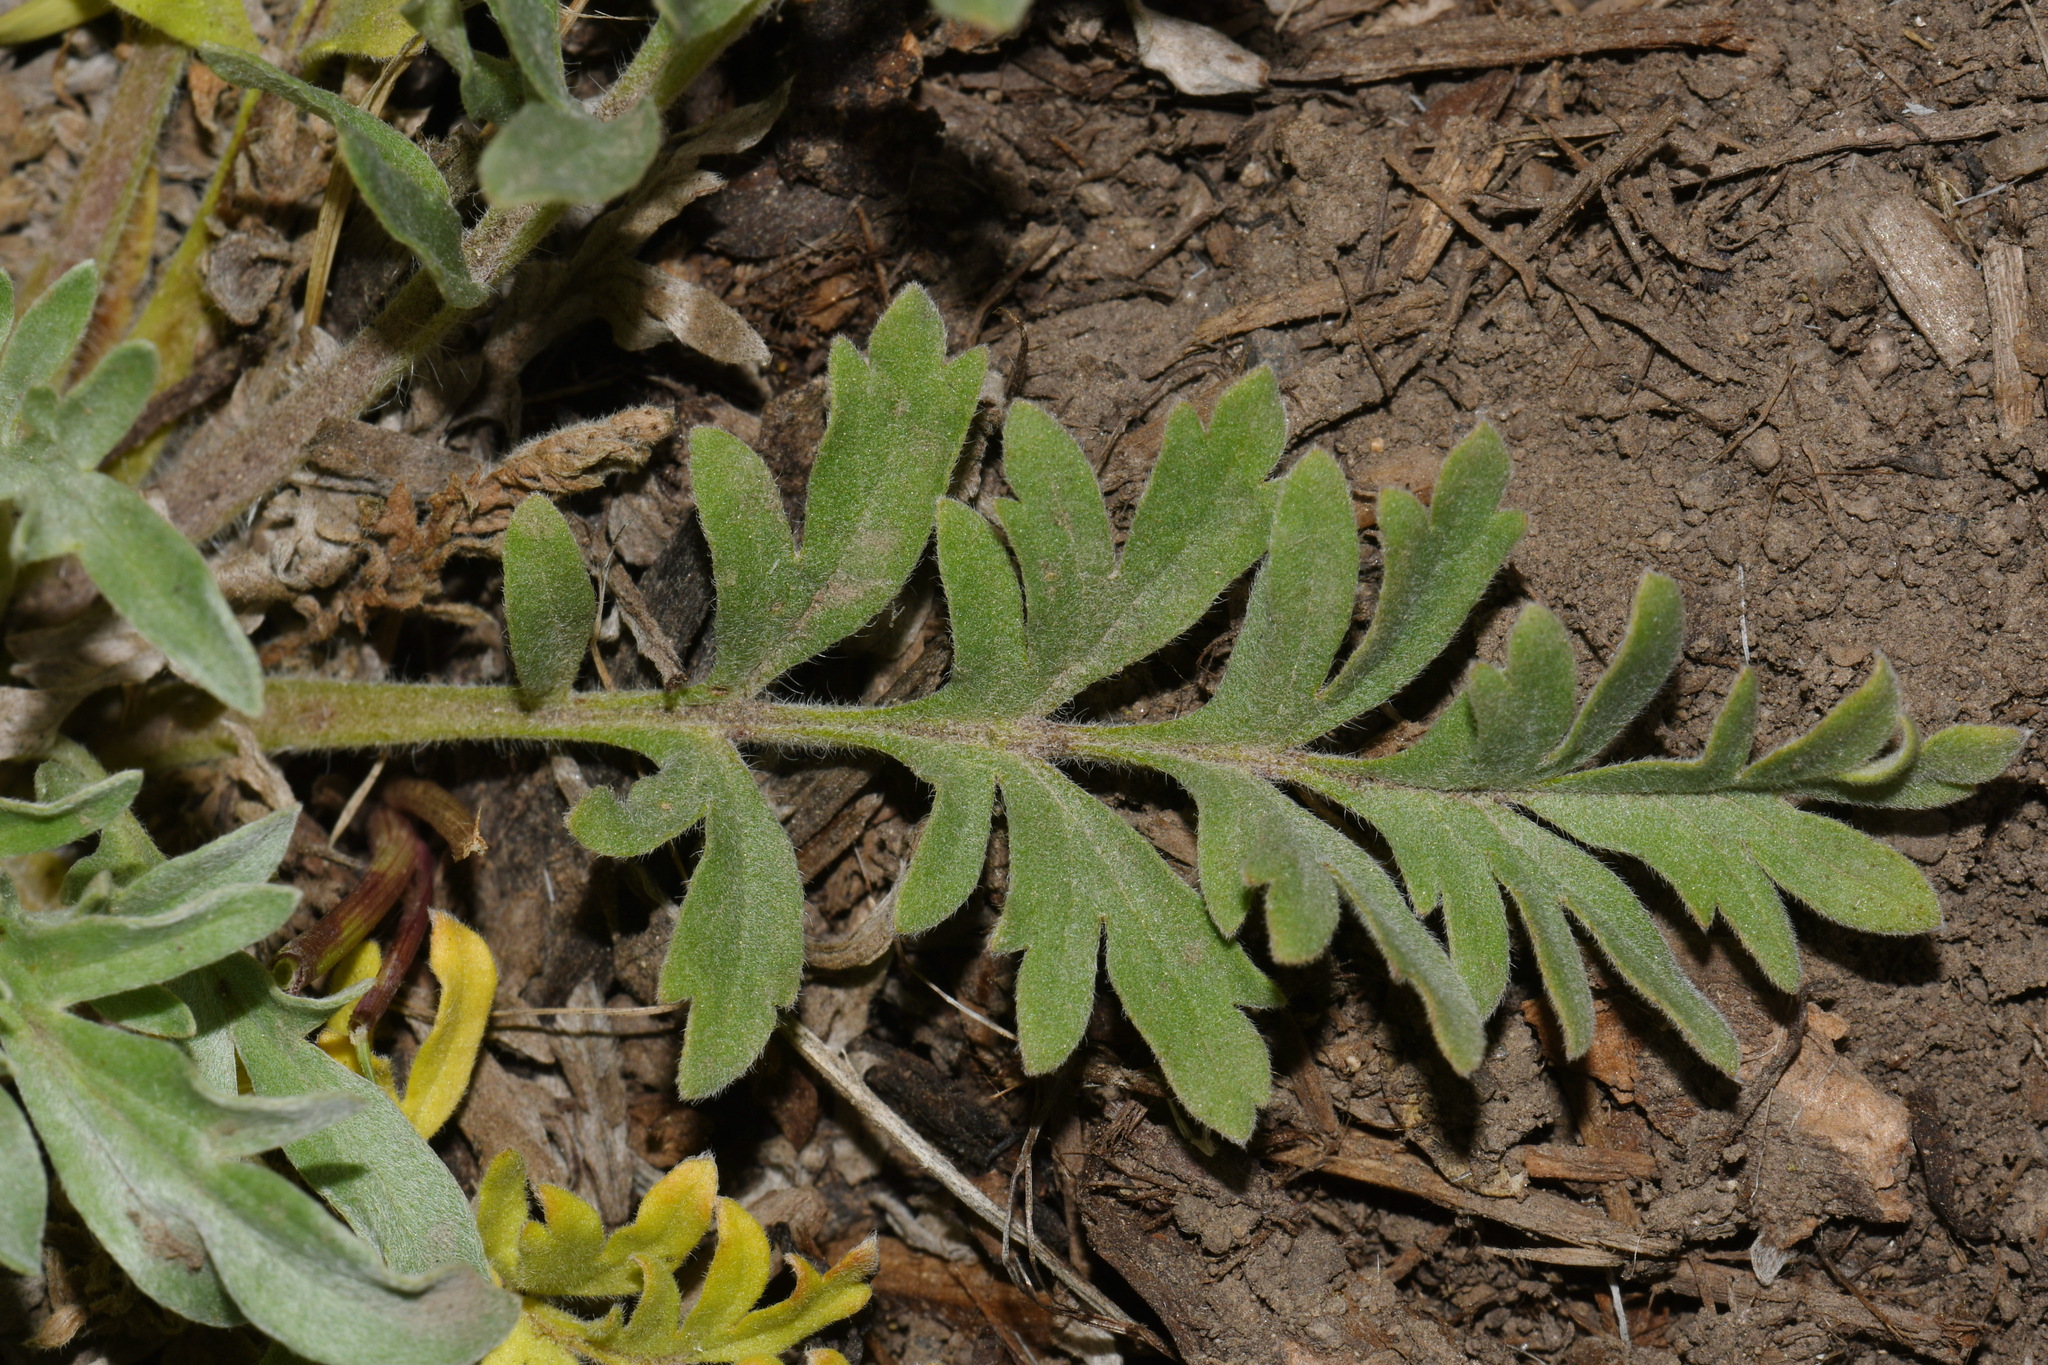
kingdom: Plantae
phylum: Tracheophyta
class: Magnoliopsida
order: Boraginales
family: Hydrophyllaceae
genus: Phacelia
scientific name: Phacelia sericea
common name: Silky phacelia
